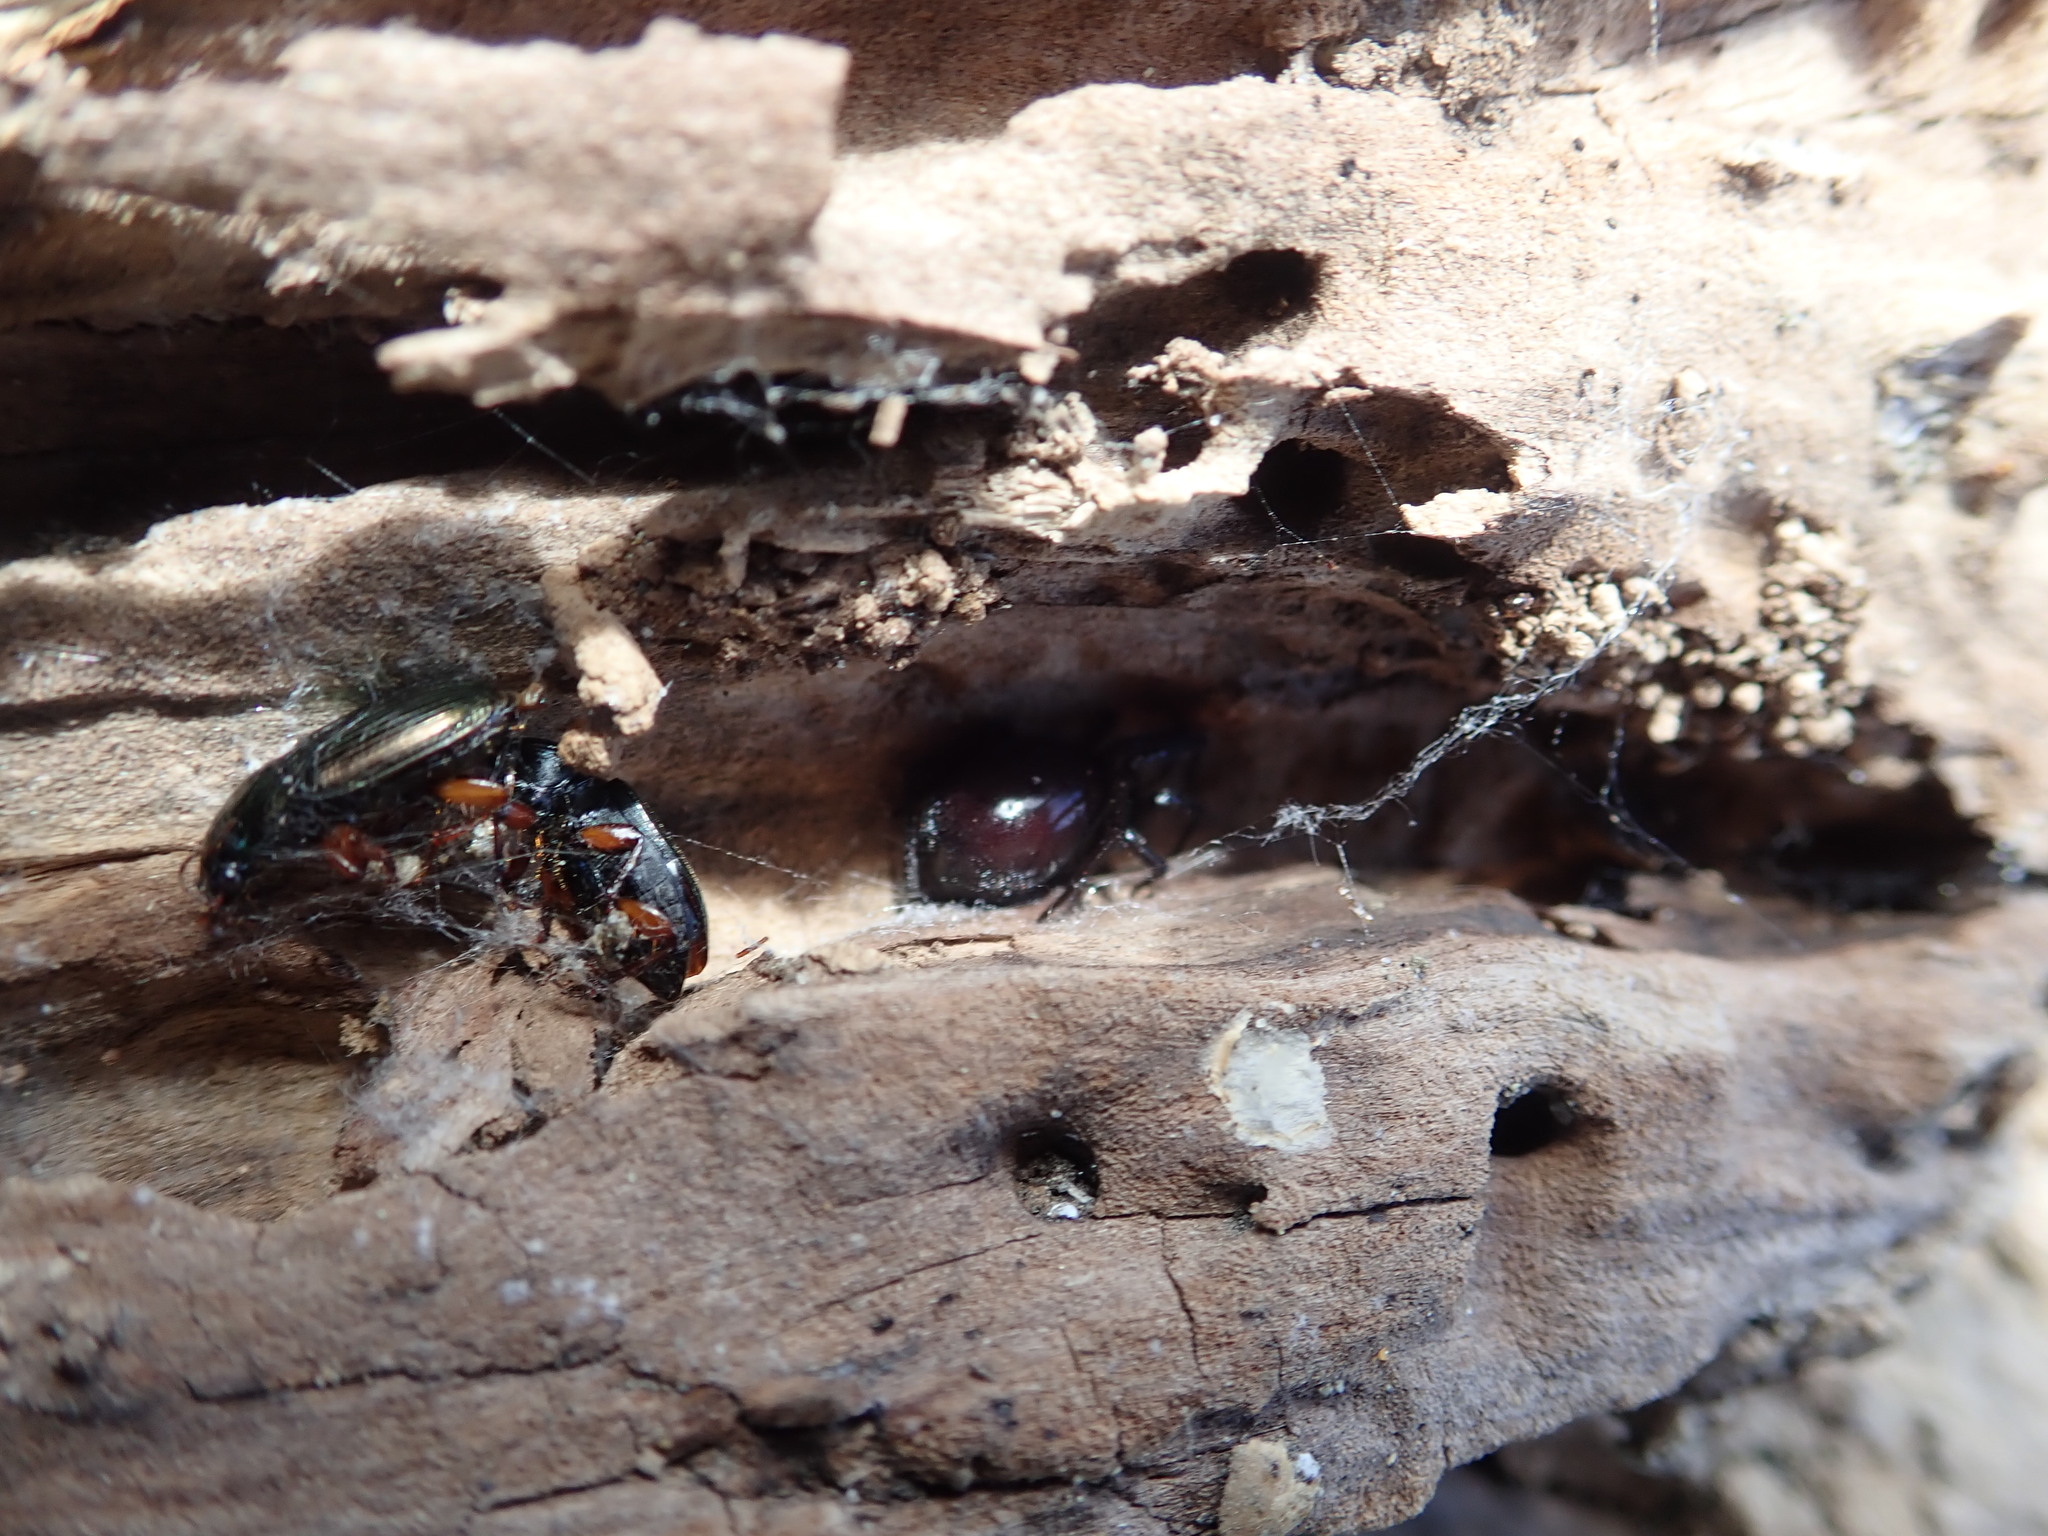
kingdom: Animalia
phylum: Arthropoda
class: Arachnida
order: Araneae
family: Theridiidae
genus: Steatoda
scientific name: Steatoda capensis
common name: Cobweb weaver
